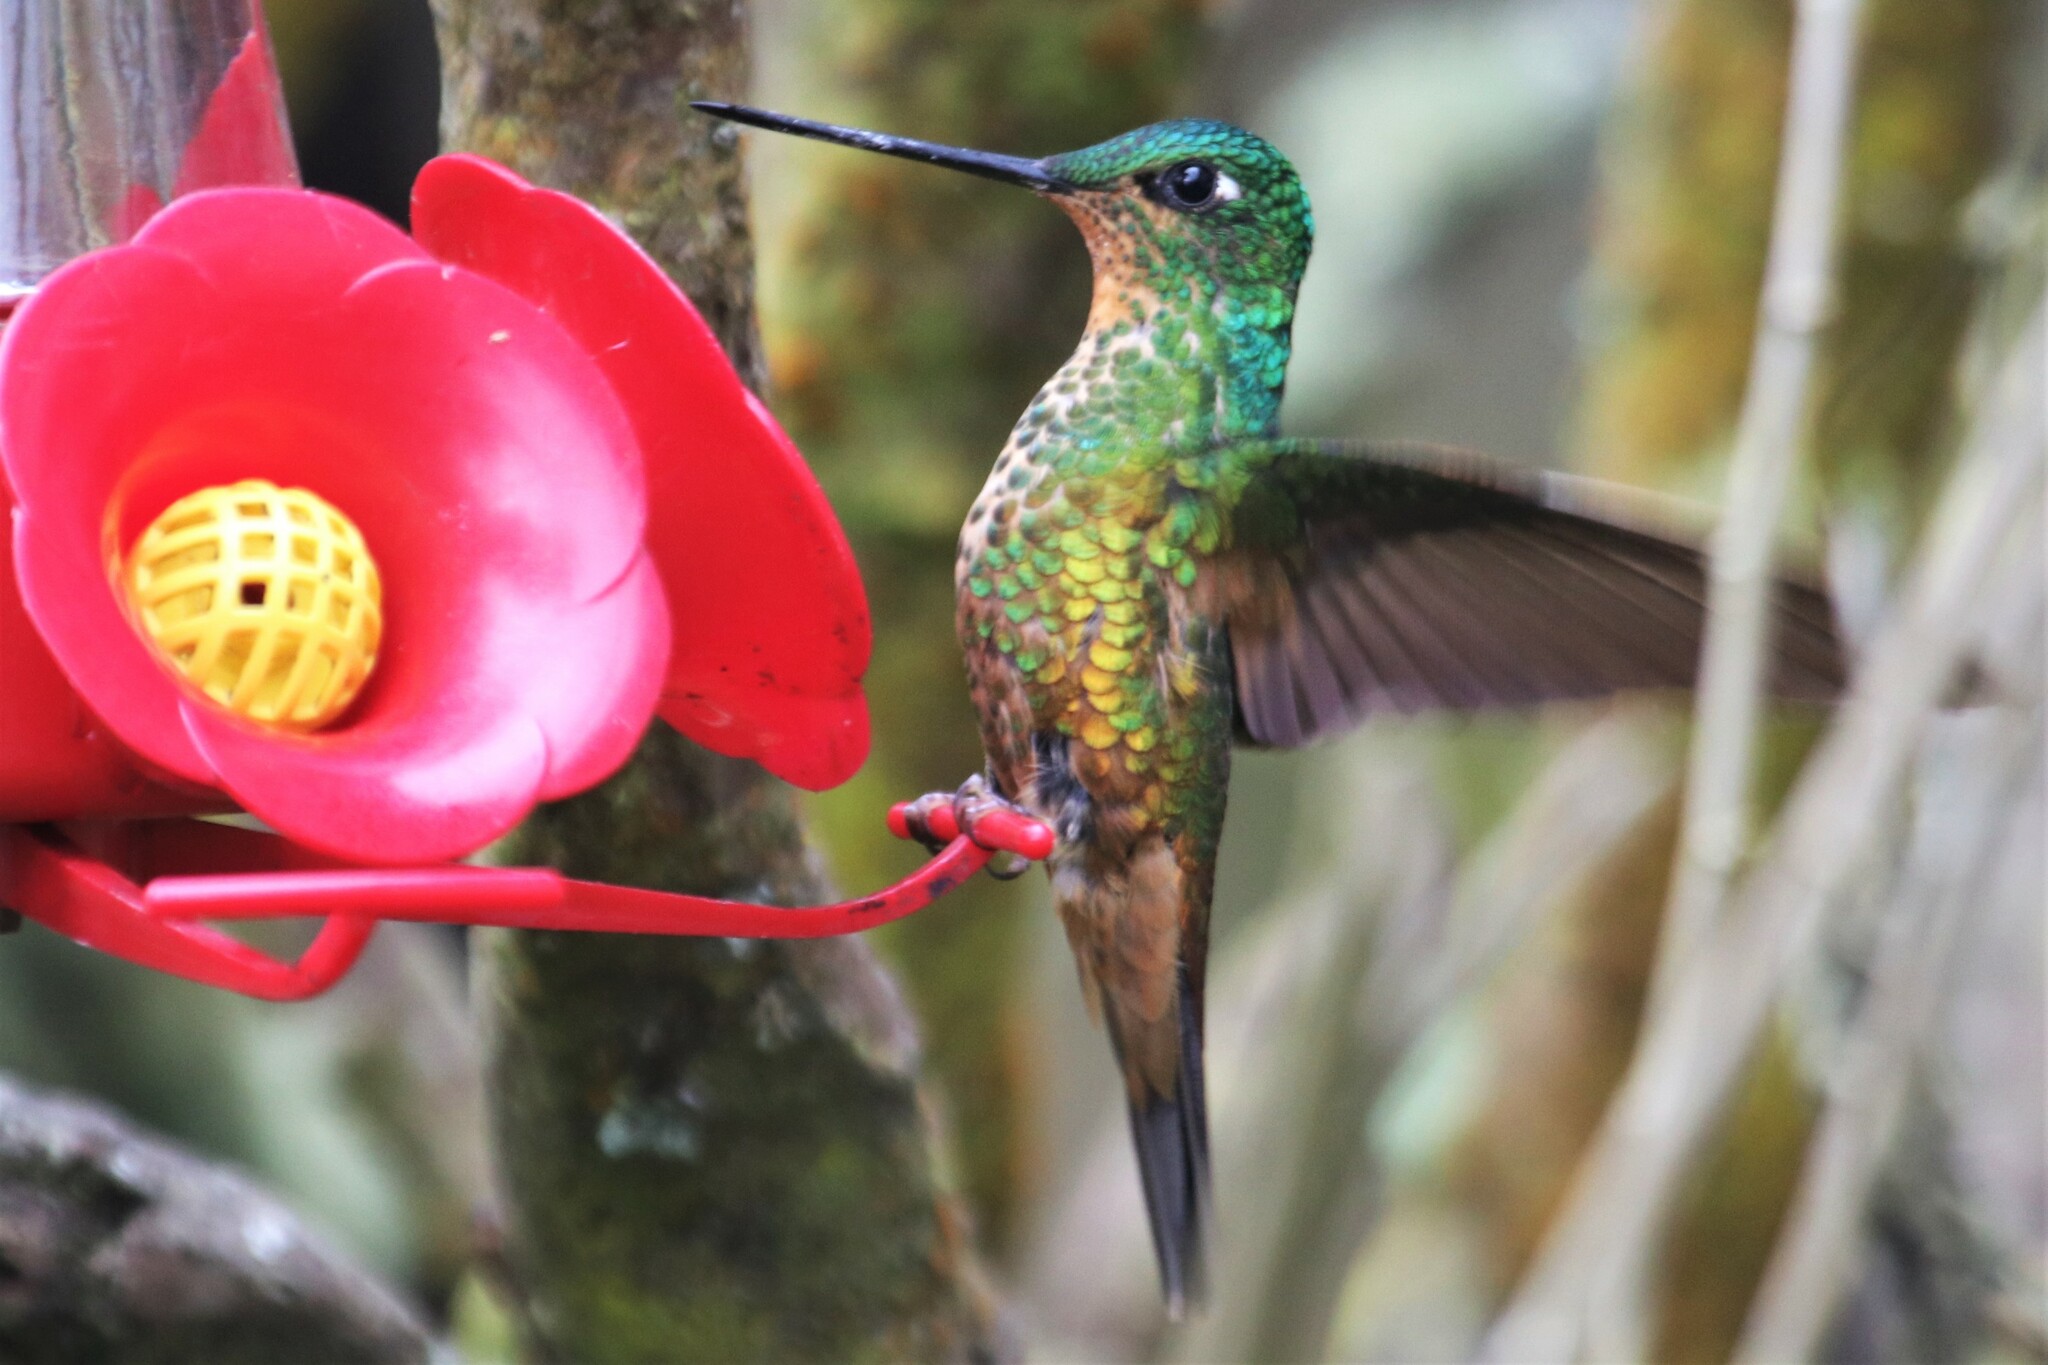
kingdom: Animalia
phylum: Chordata
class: Aves
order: Apodiformes
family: Trochilidae
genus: Coeligena
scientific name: Coeligena bonapartei
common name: Golden-bellied starfrontlet
